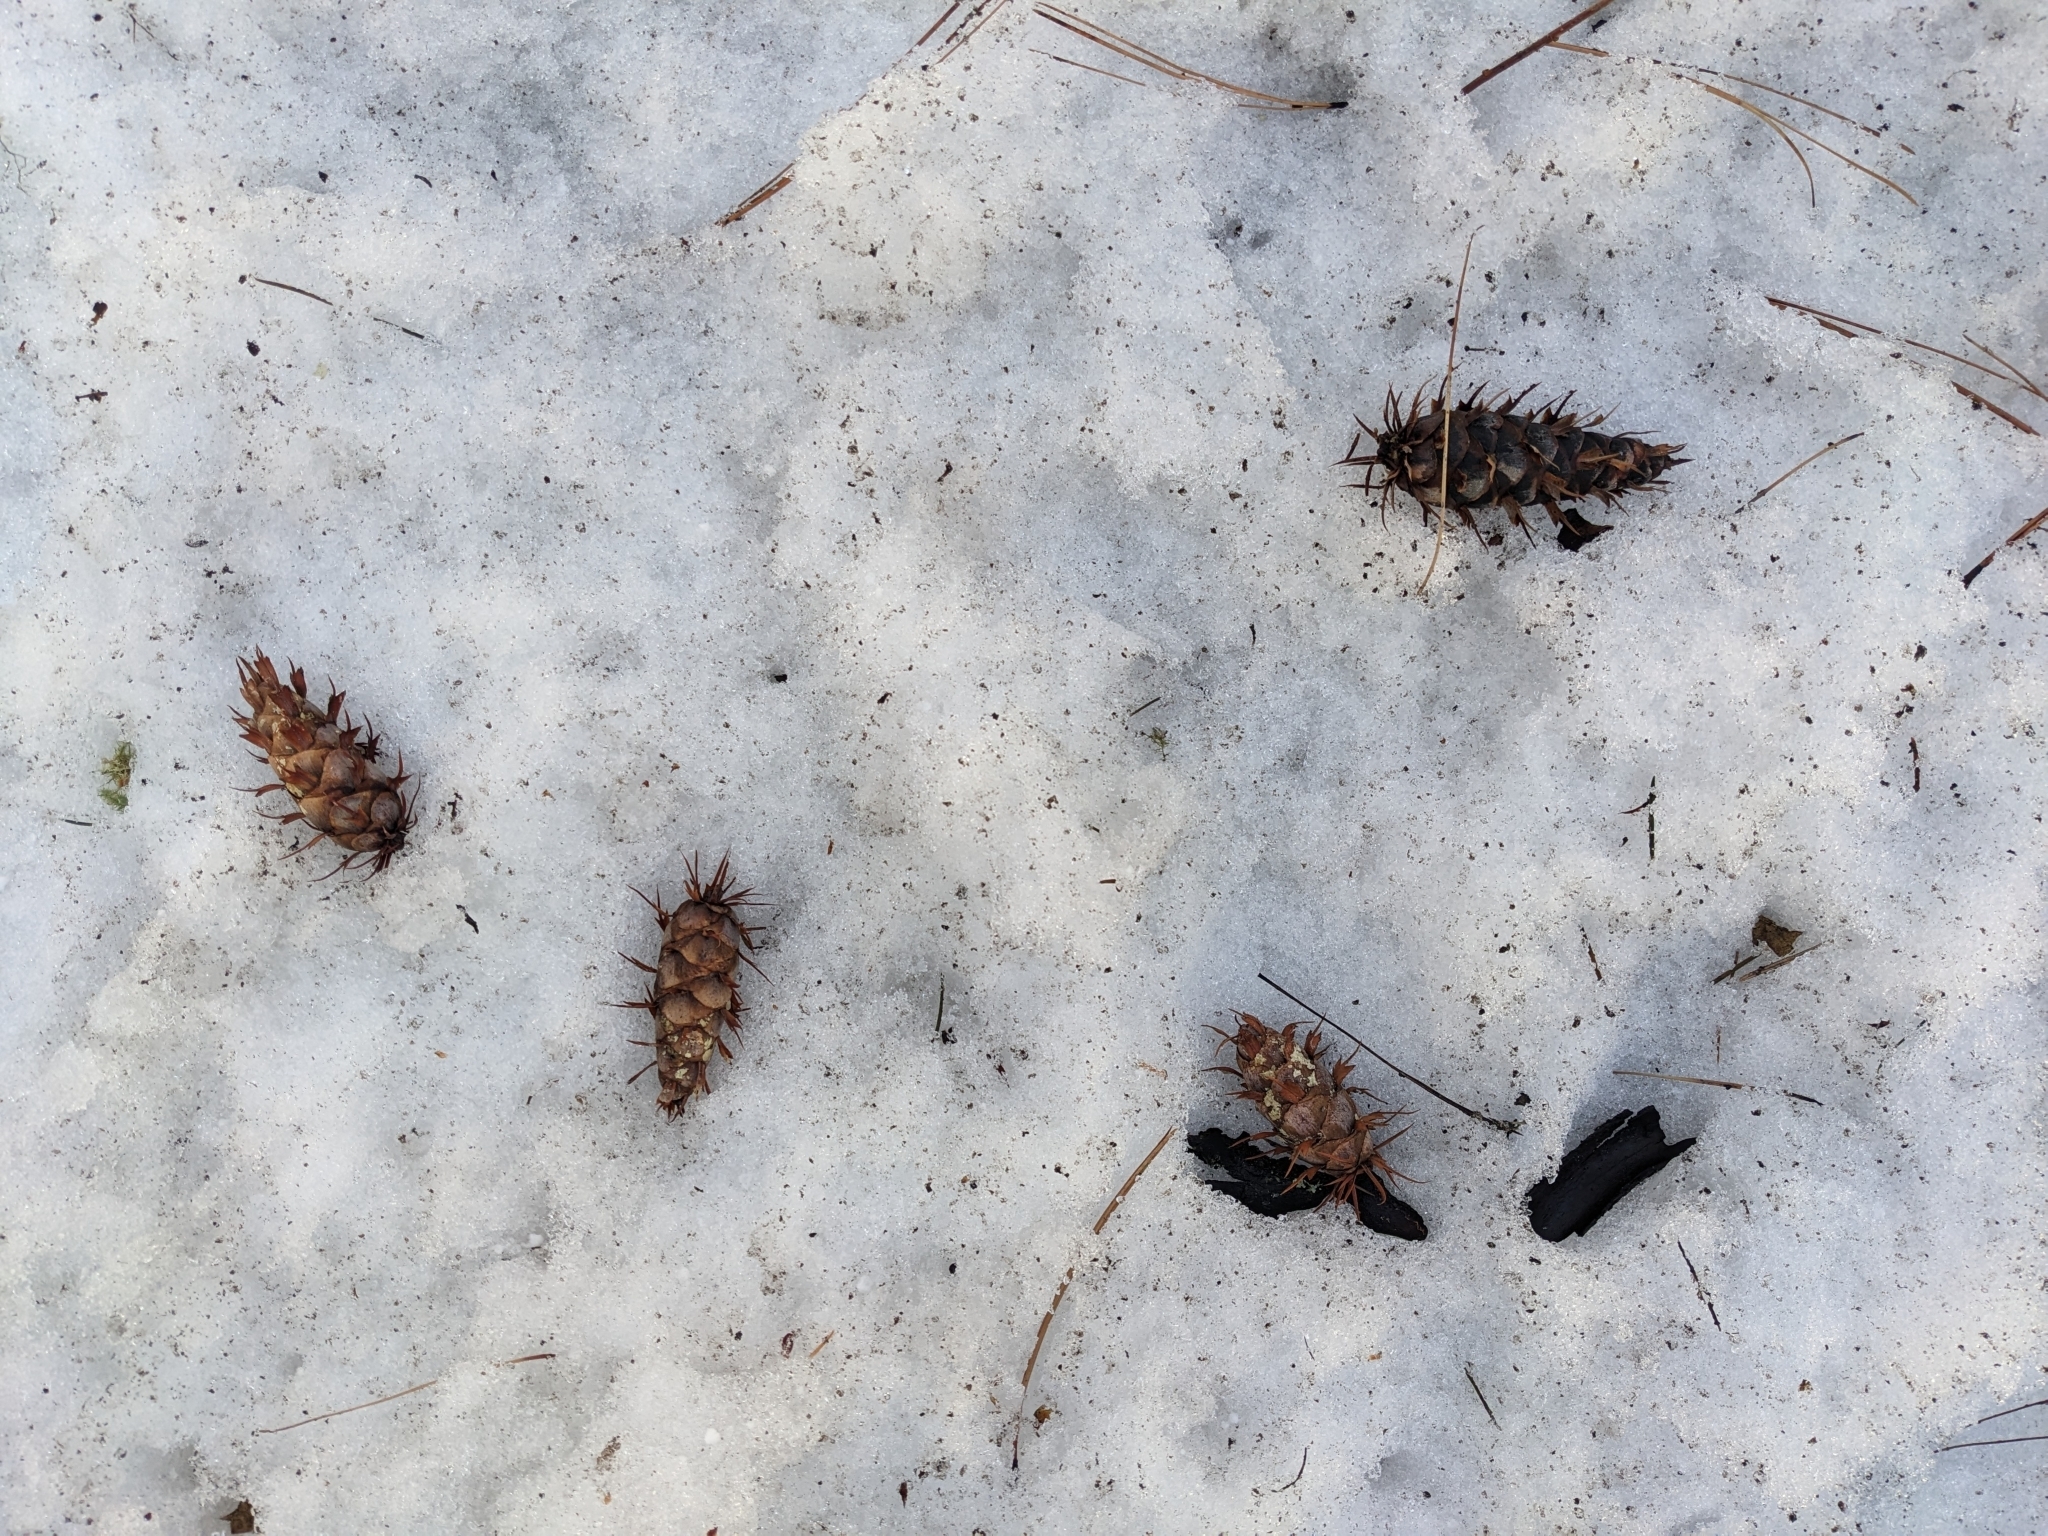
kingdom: Plantae
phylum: Tracheophyta
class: Pinopsida
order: Pinales
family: Pinaceae
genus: Pseudotsuga
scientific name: Pseudotsuga menziesii
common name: Douglas fir
